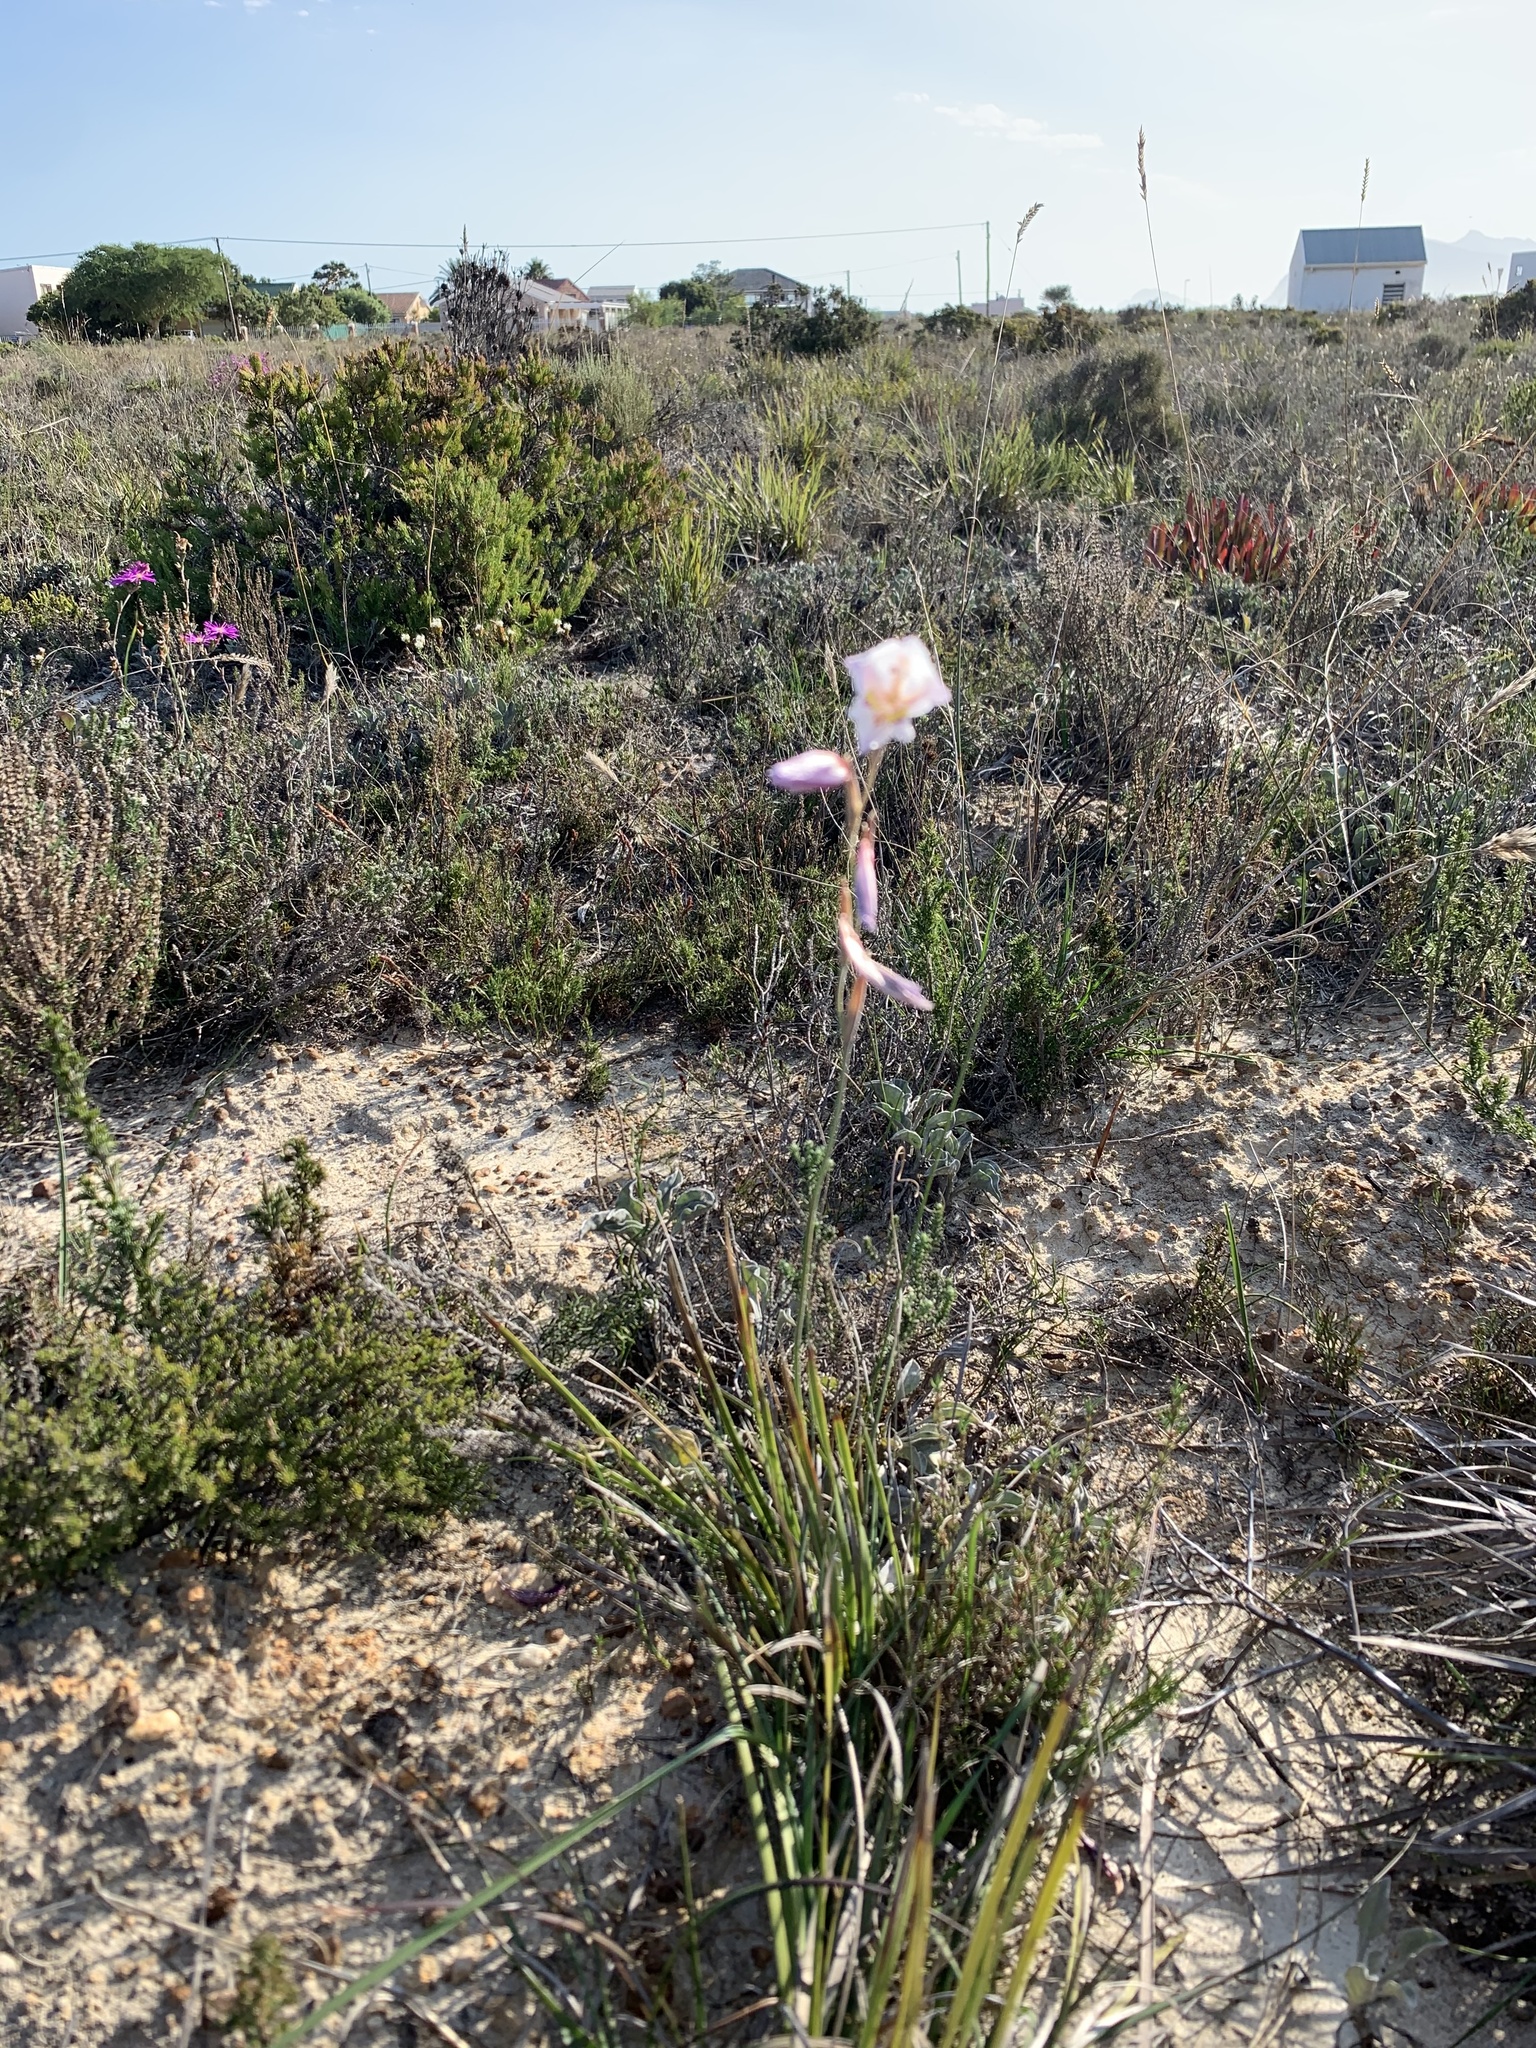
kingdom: Plantae
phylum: Tracheophyta
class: Liliopsida
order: Asparagales
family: Iridaceae
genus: Gladiolus
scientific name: Gladiolus brevifolius
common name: March pypie
